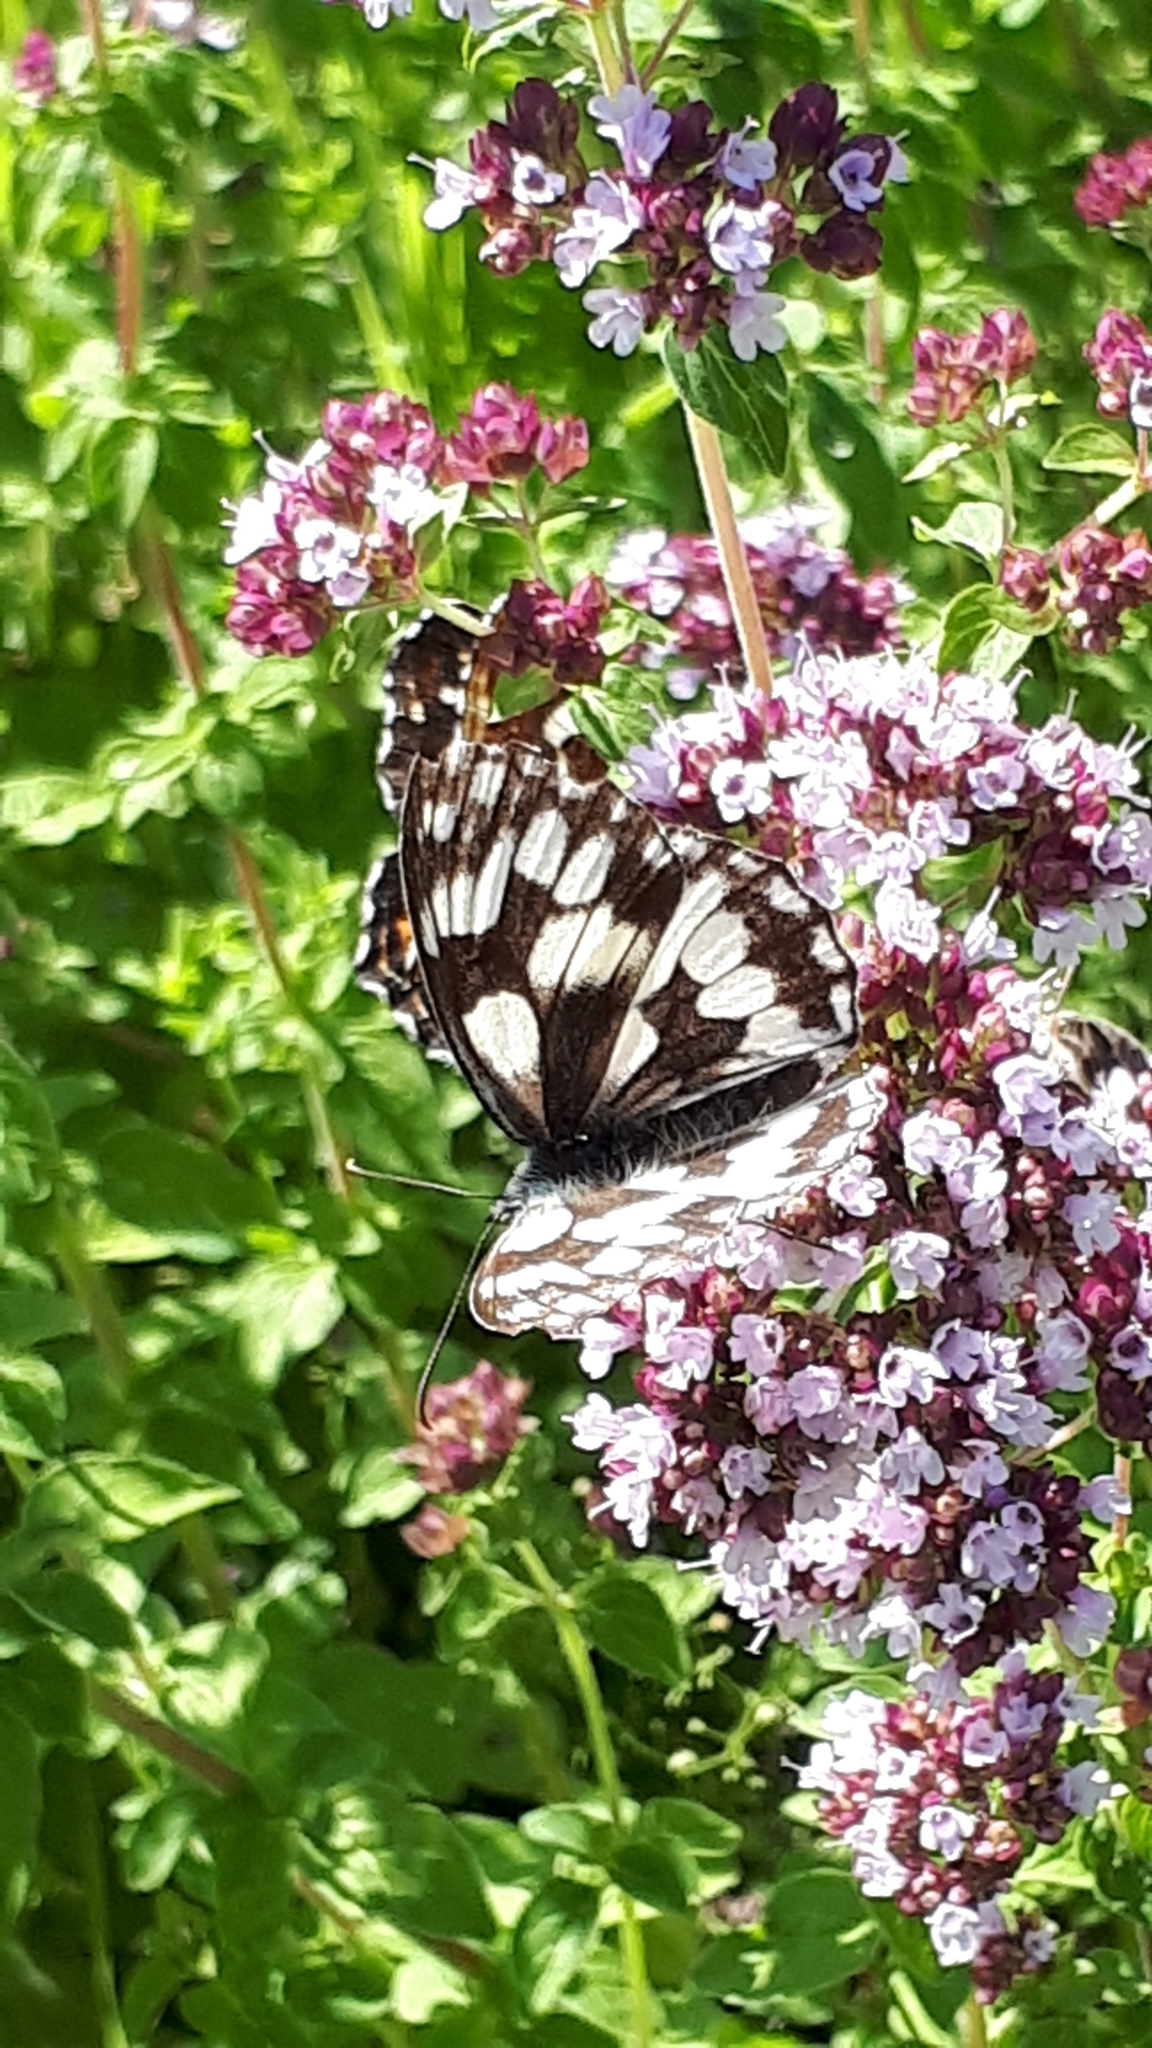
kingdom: Animalia
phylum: Arthropoda
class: Insecta
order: Lepidoptera
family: Nymphalidae
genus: Melanargia
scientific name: Melanargia galathea
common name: Marbled white
